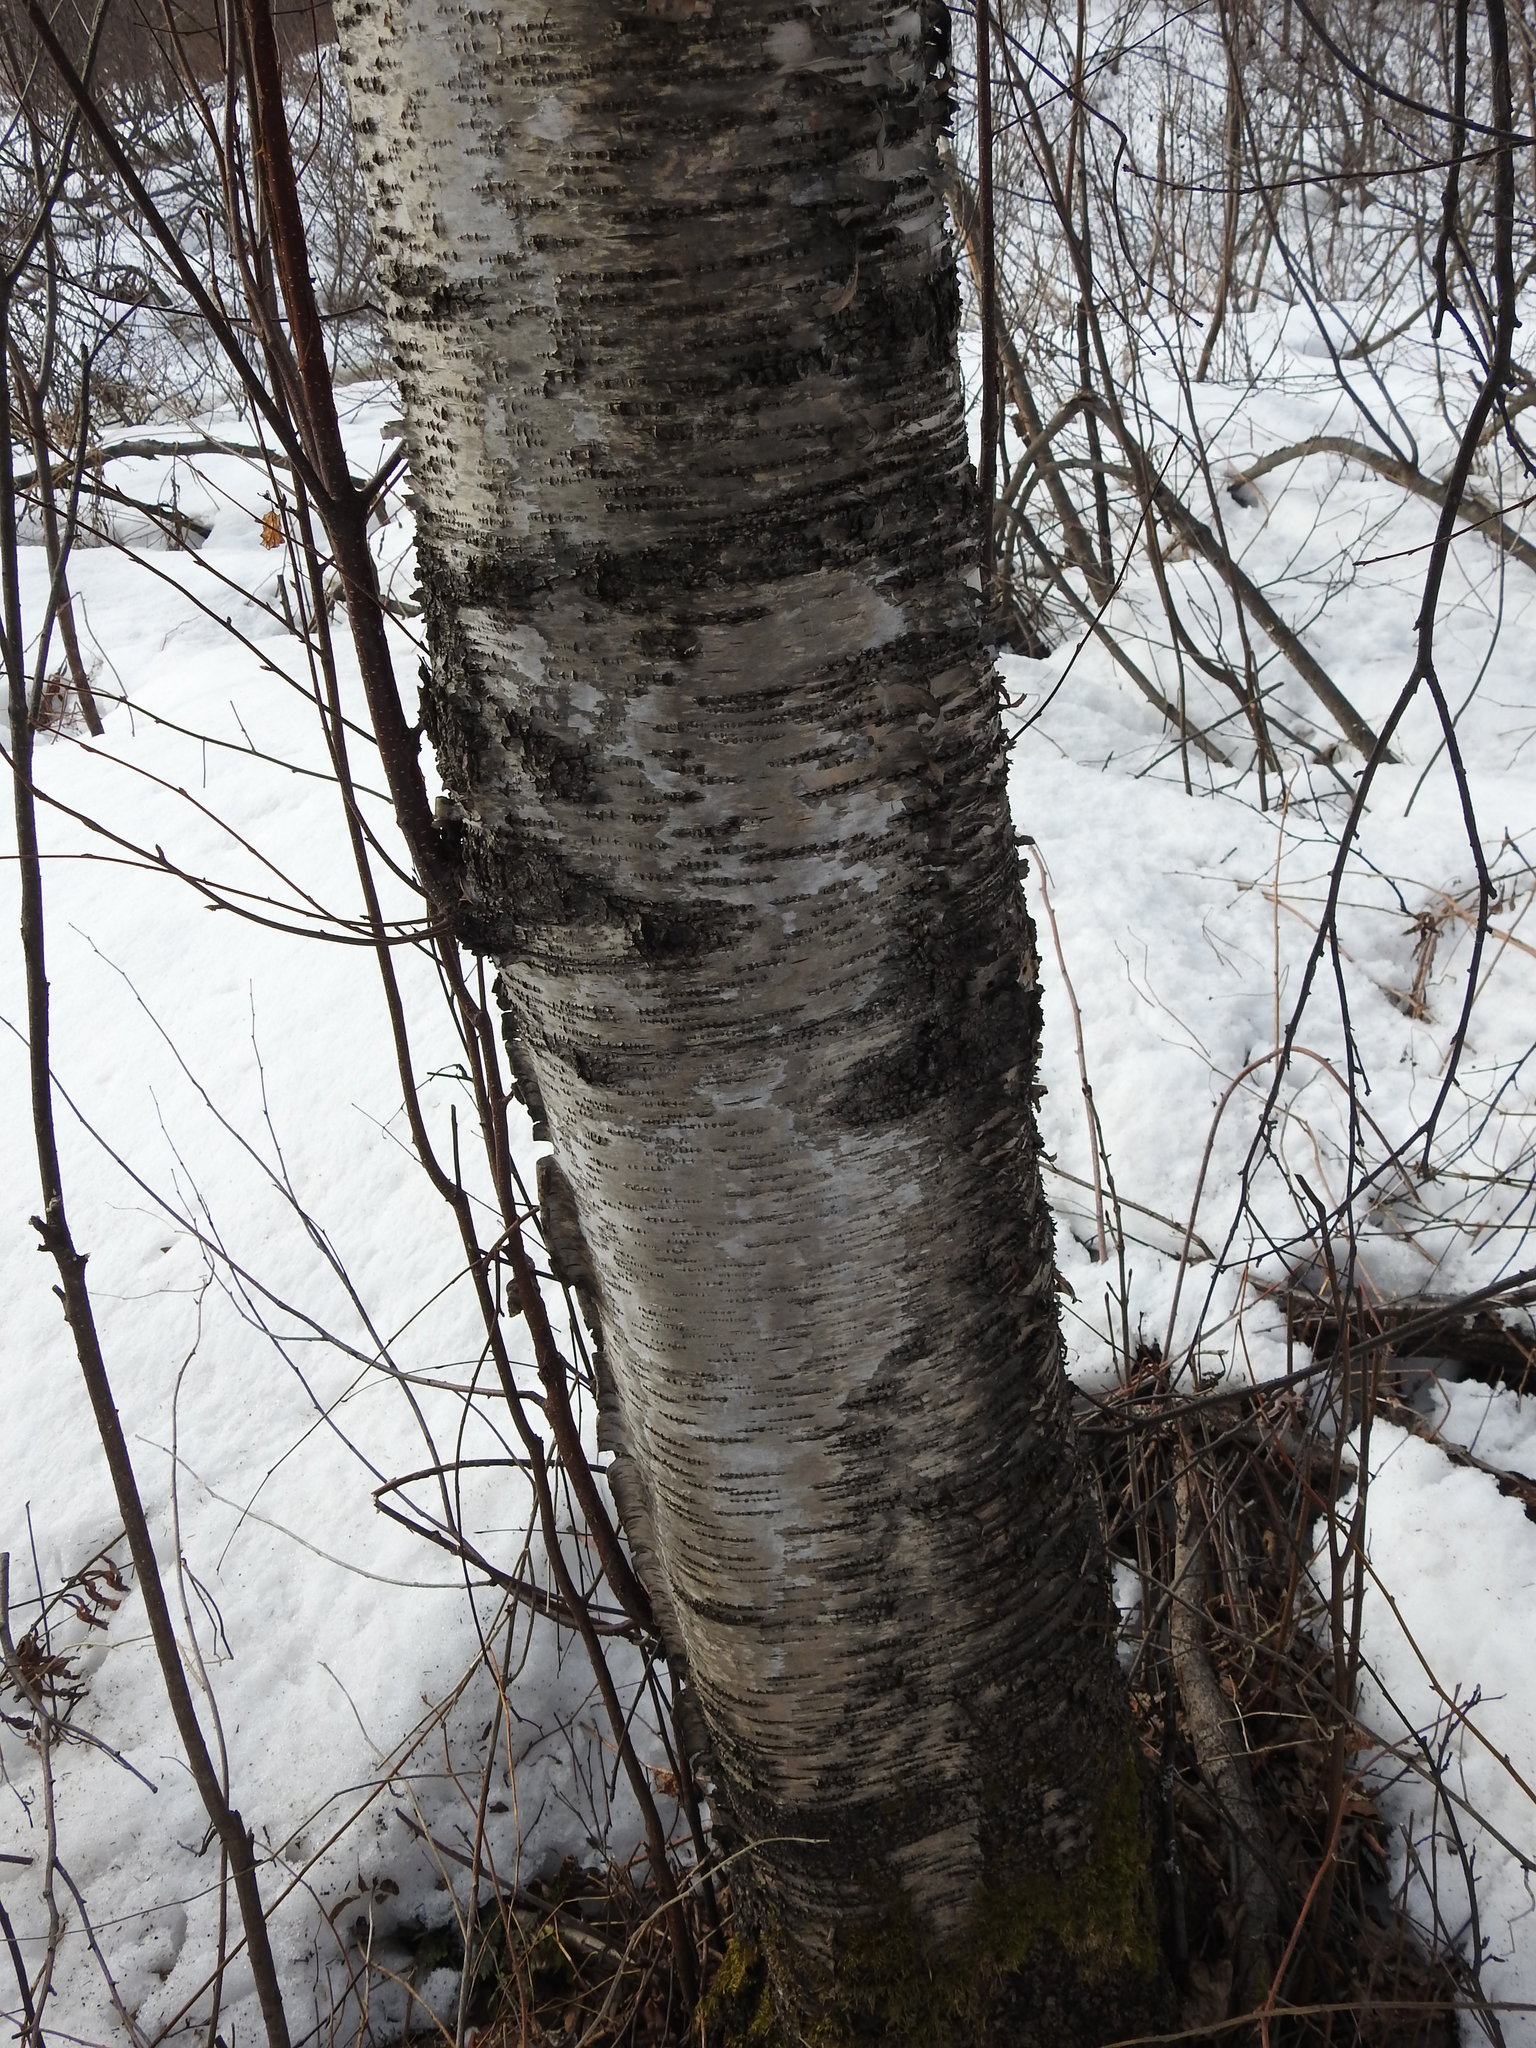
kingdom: Plantae
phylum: Tracheophyta
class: Magnoliopsida
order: Fagales
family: Betulaceae
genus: Betula
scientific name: Betula papyrifera
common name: Paper birch
